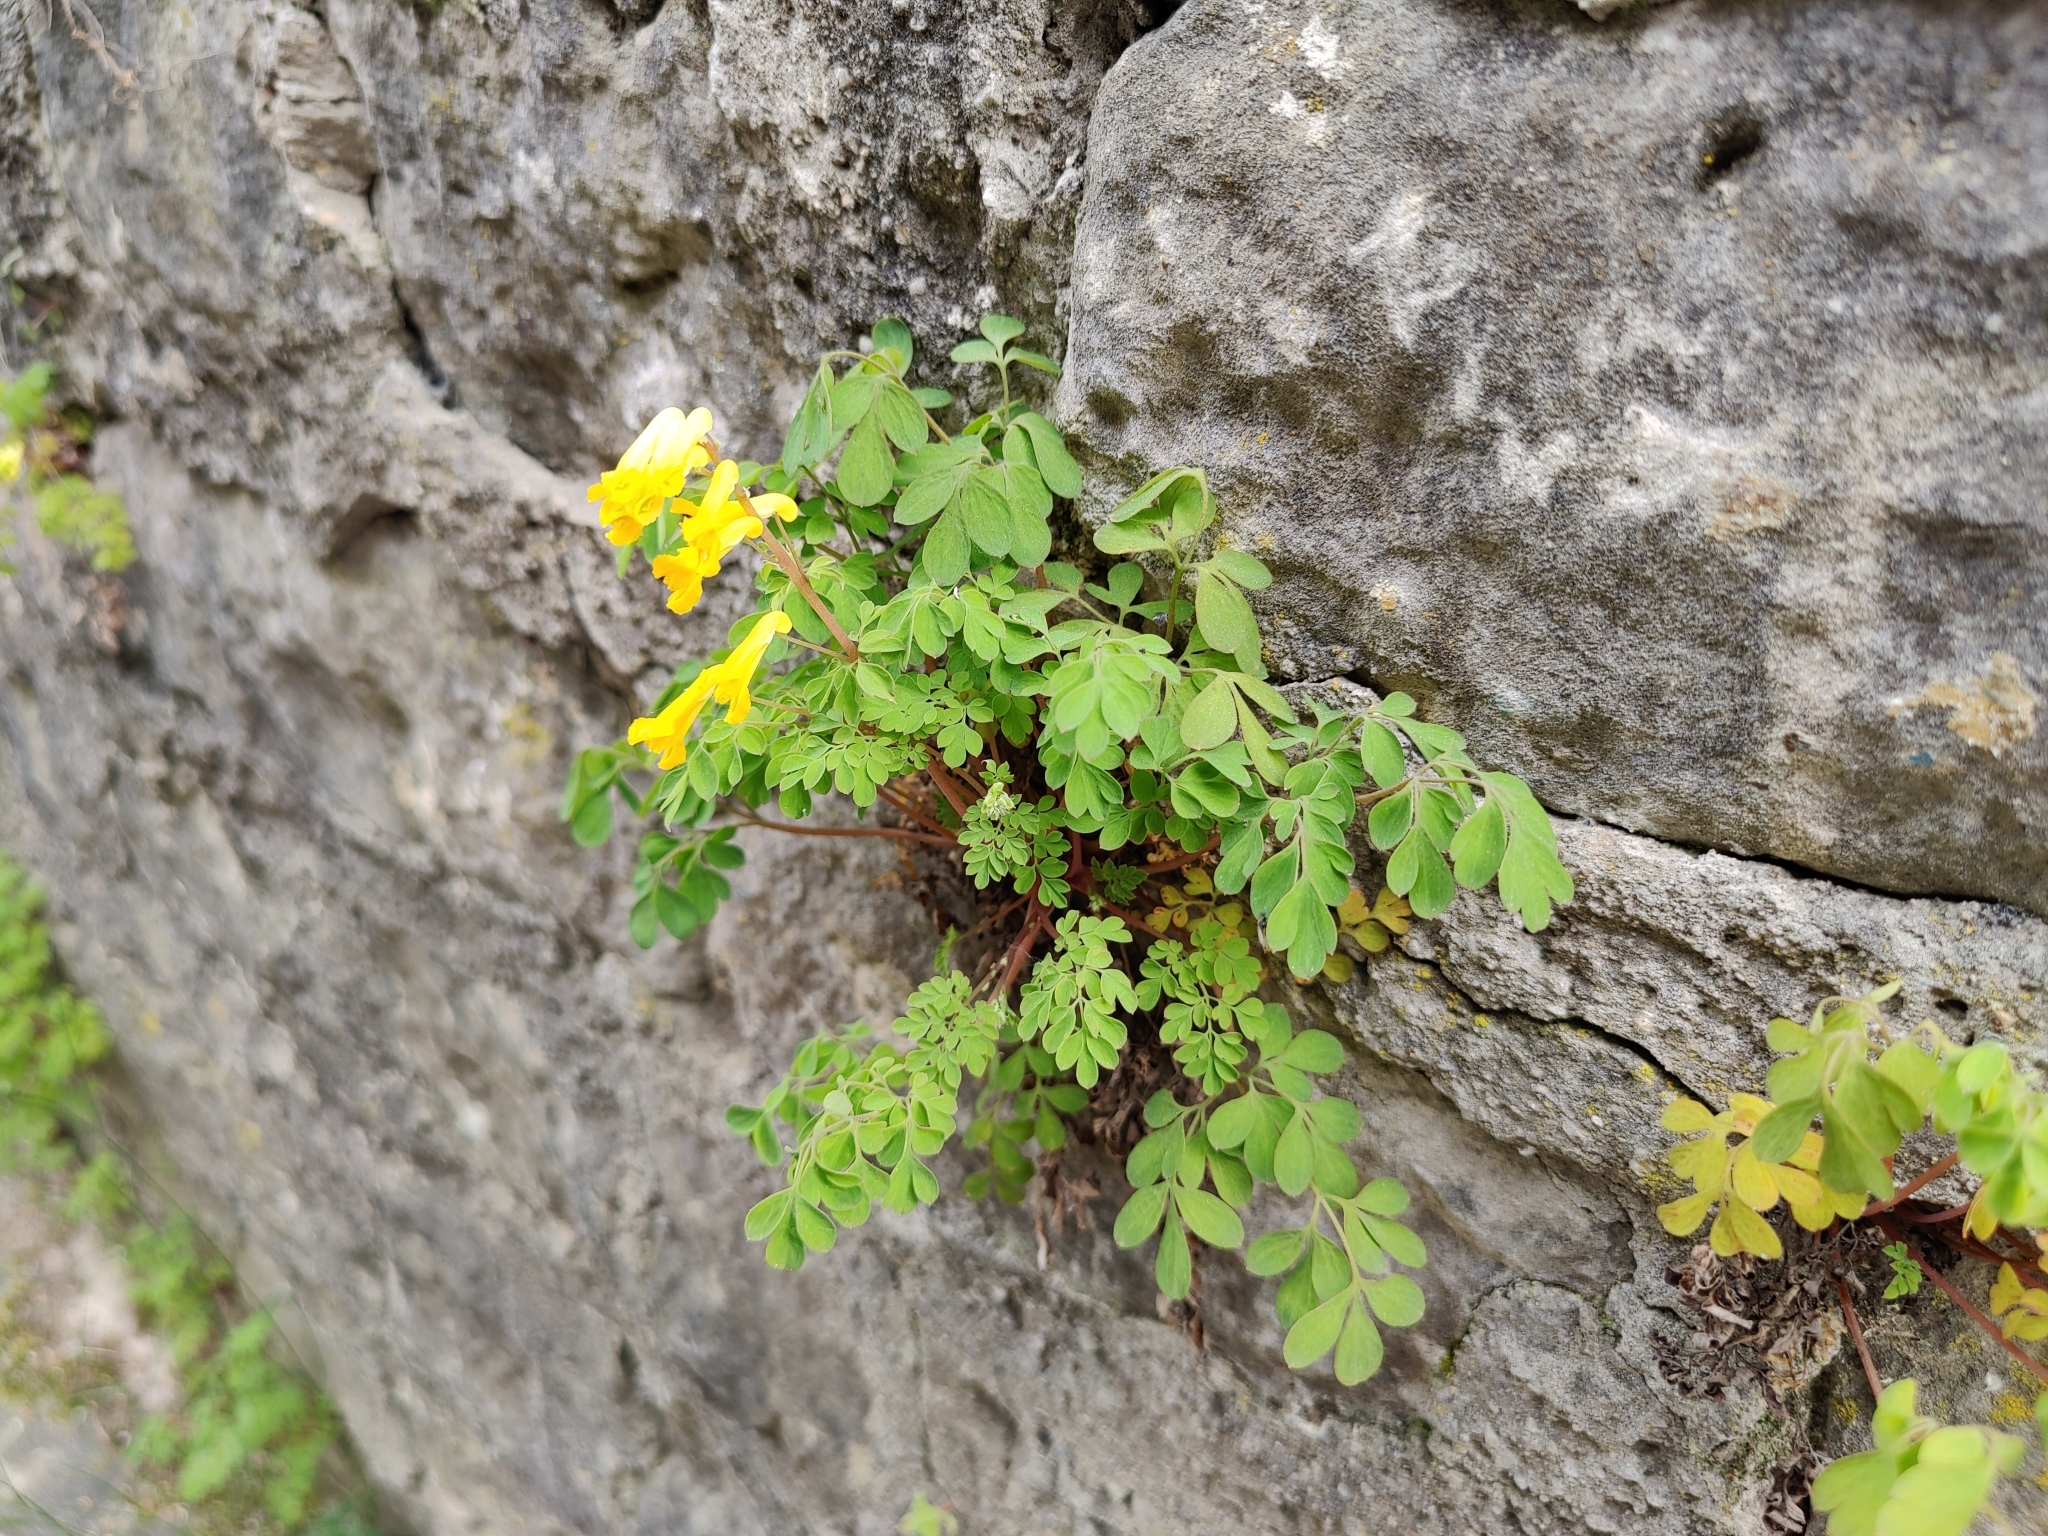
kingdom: Plantae
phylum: Tracheophyta
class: Magnoliopsida
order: Ranunculales
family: Papaveraceae
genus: Pseudofumaria
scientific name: Pseudofumaria lutea
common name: Yellow corydalis
